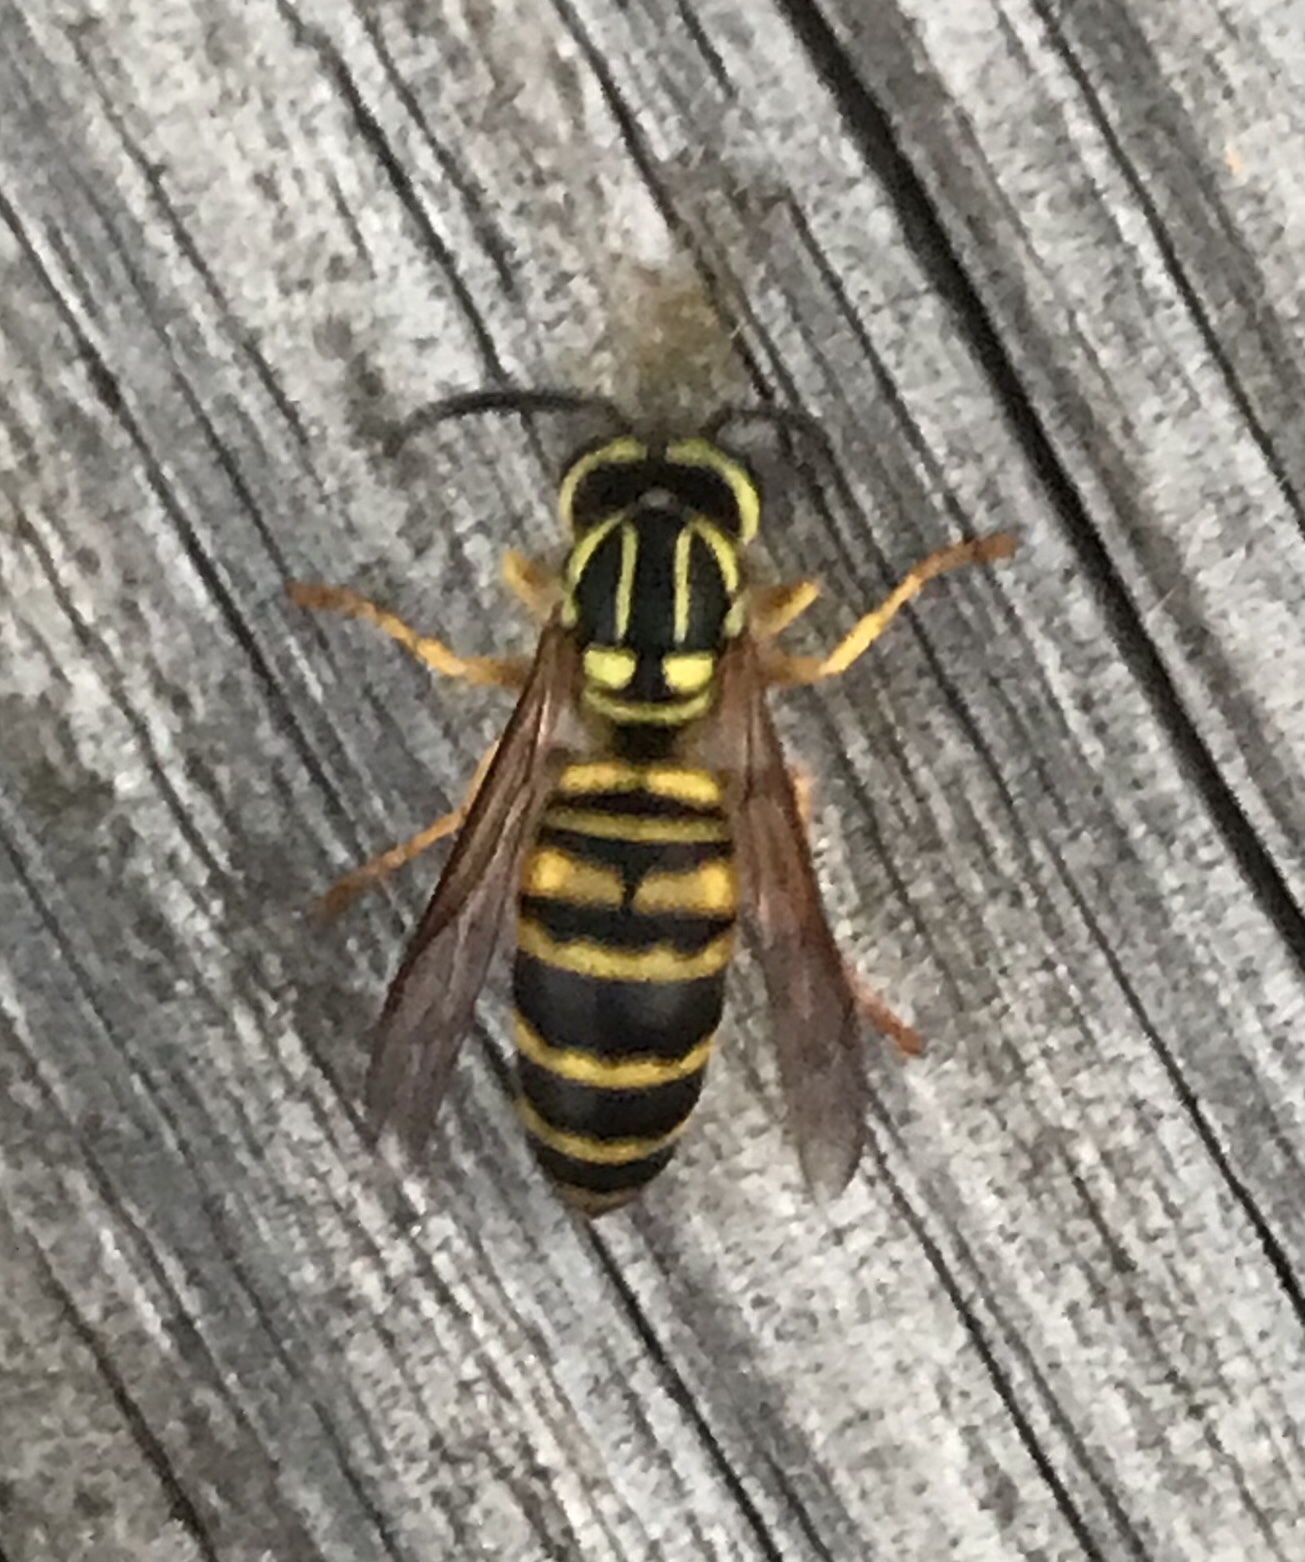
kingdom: Animalia
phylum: Arthropoda
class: Insecta
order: Hymenoptera
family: Vespidae
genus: Vespula
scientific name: Vespula squamosa
